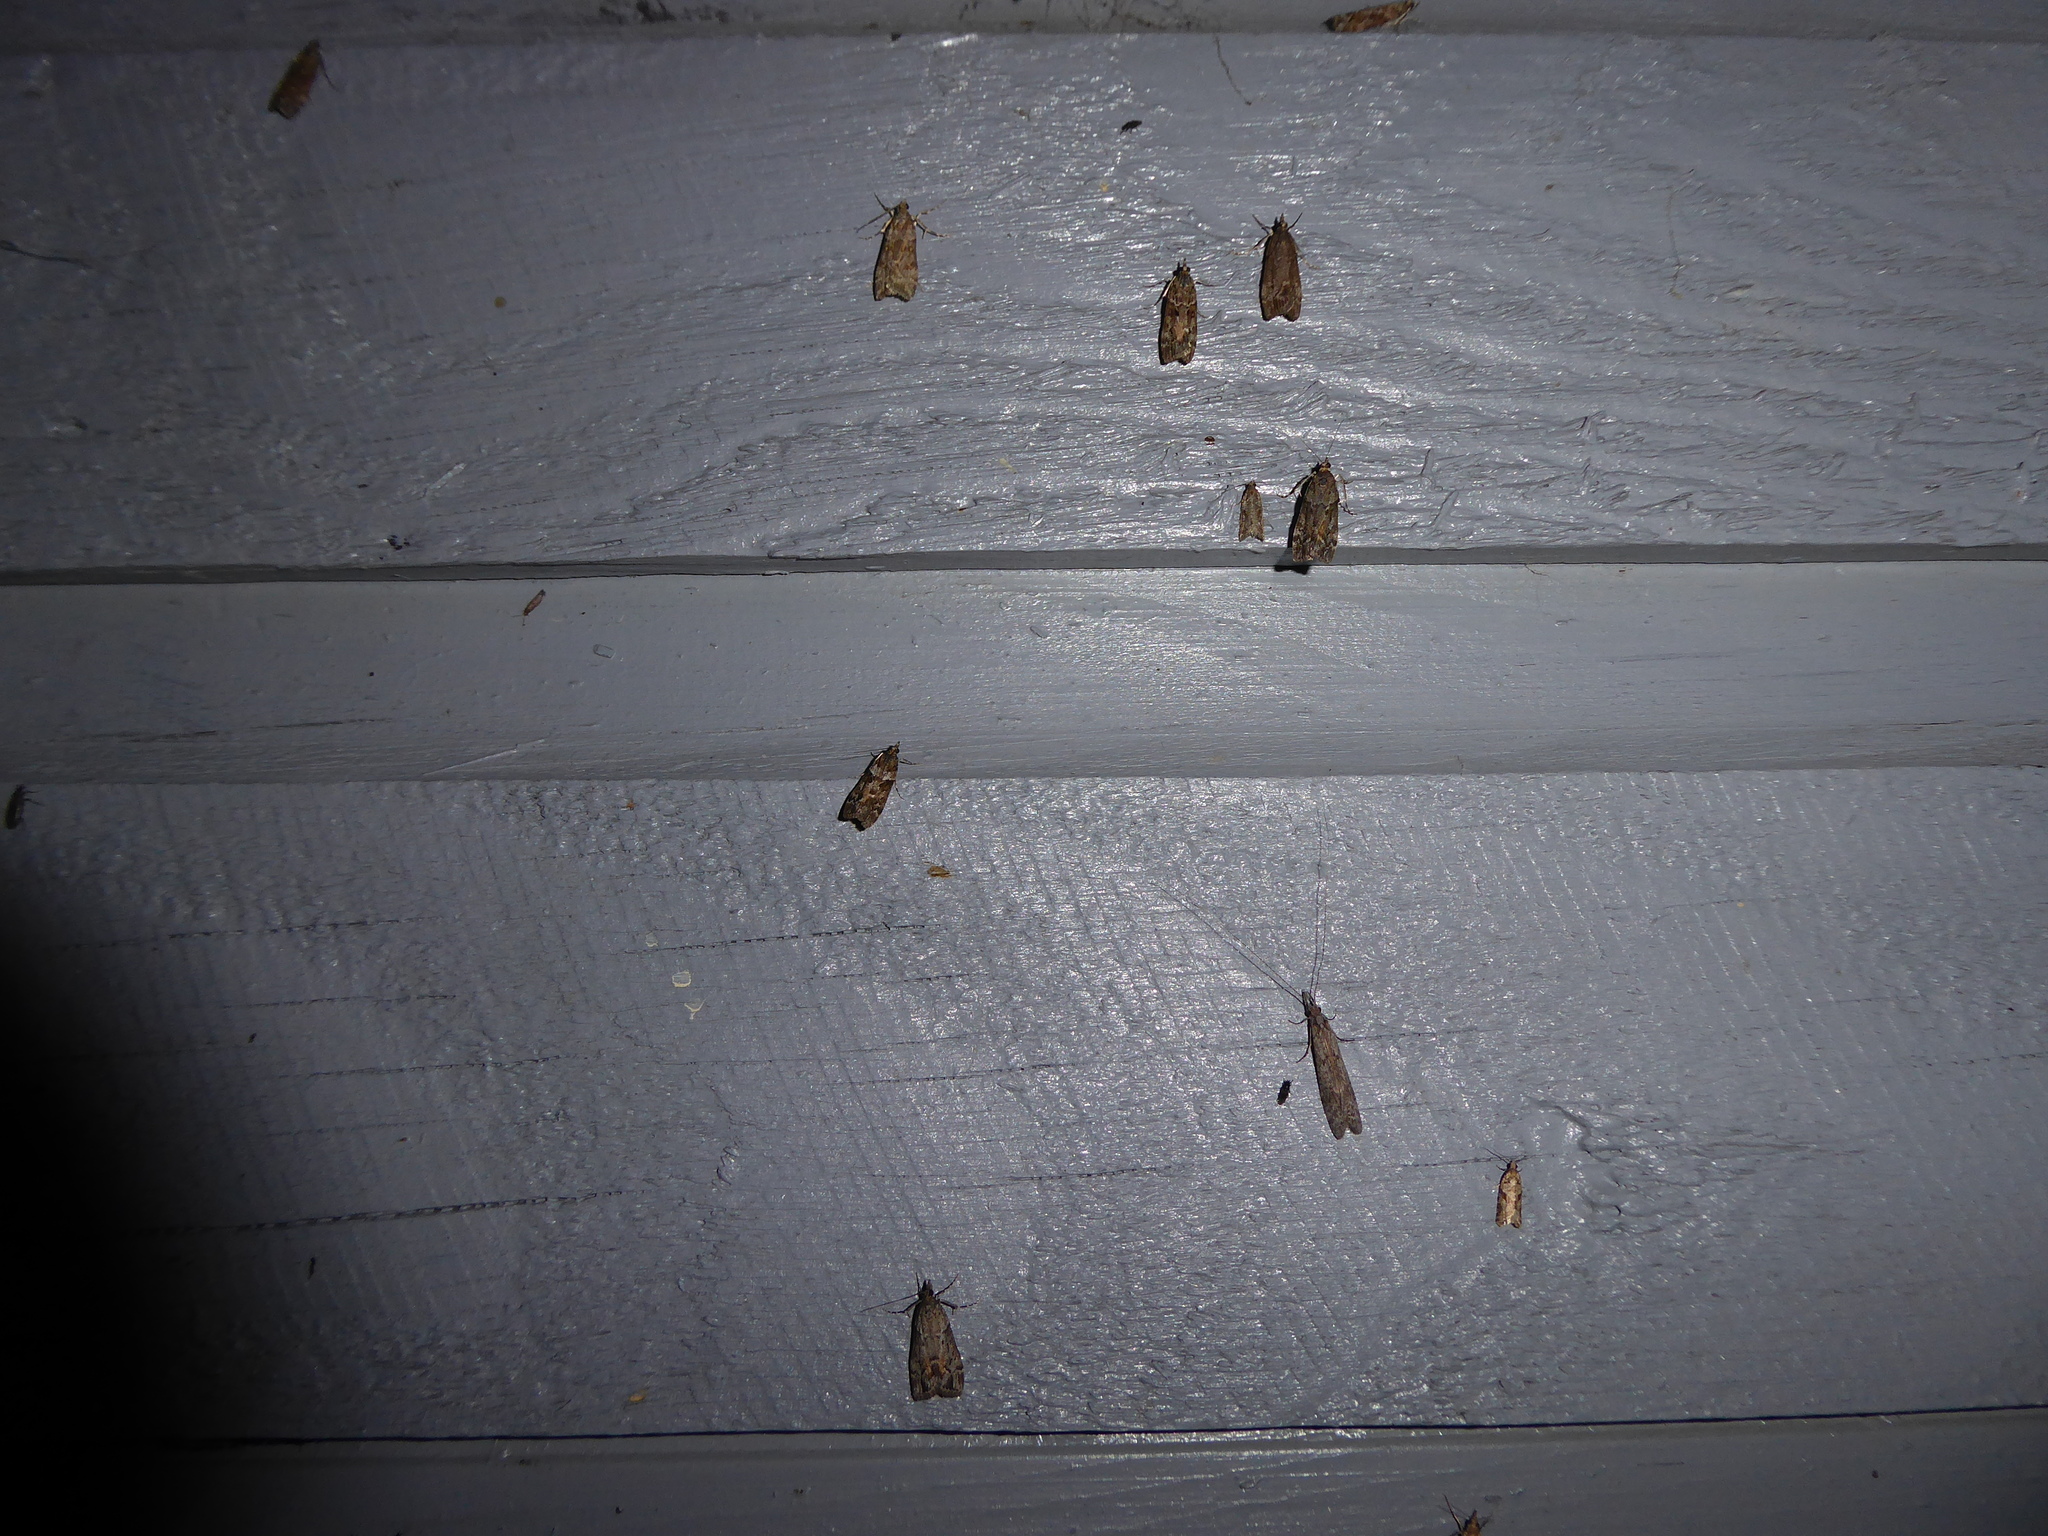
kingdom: Animalia
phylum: Arthropoda
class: Insecta
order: Lepidoptera
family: Crambidae
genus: Eudonia
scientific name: Eudonia submarginalis
